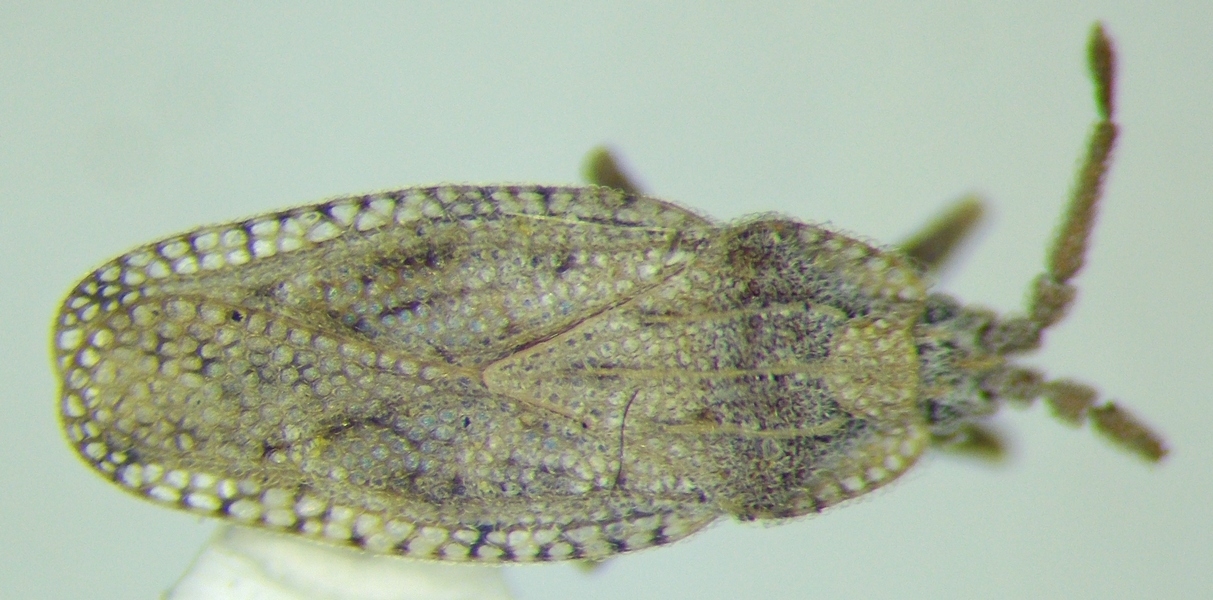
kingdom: Animalia
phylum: Arthropoda
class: Insecta
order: Hemiptera
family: Tingidae
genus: Tingis
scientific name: Tingis crispata
